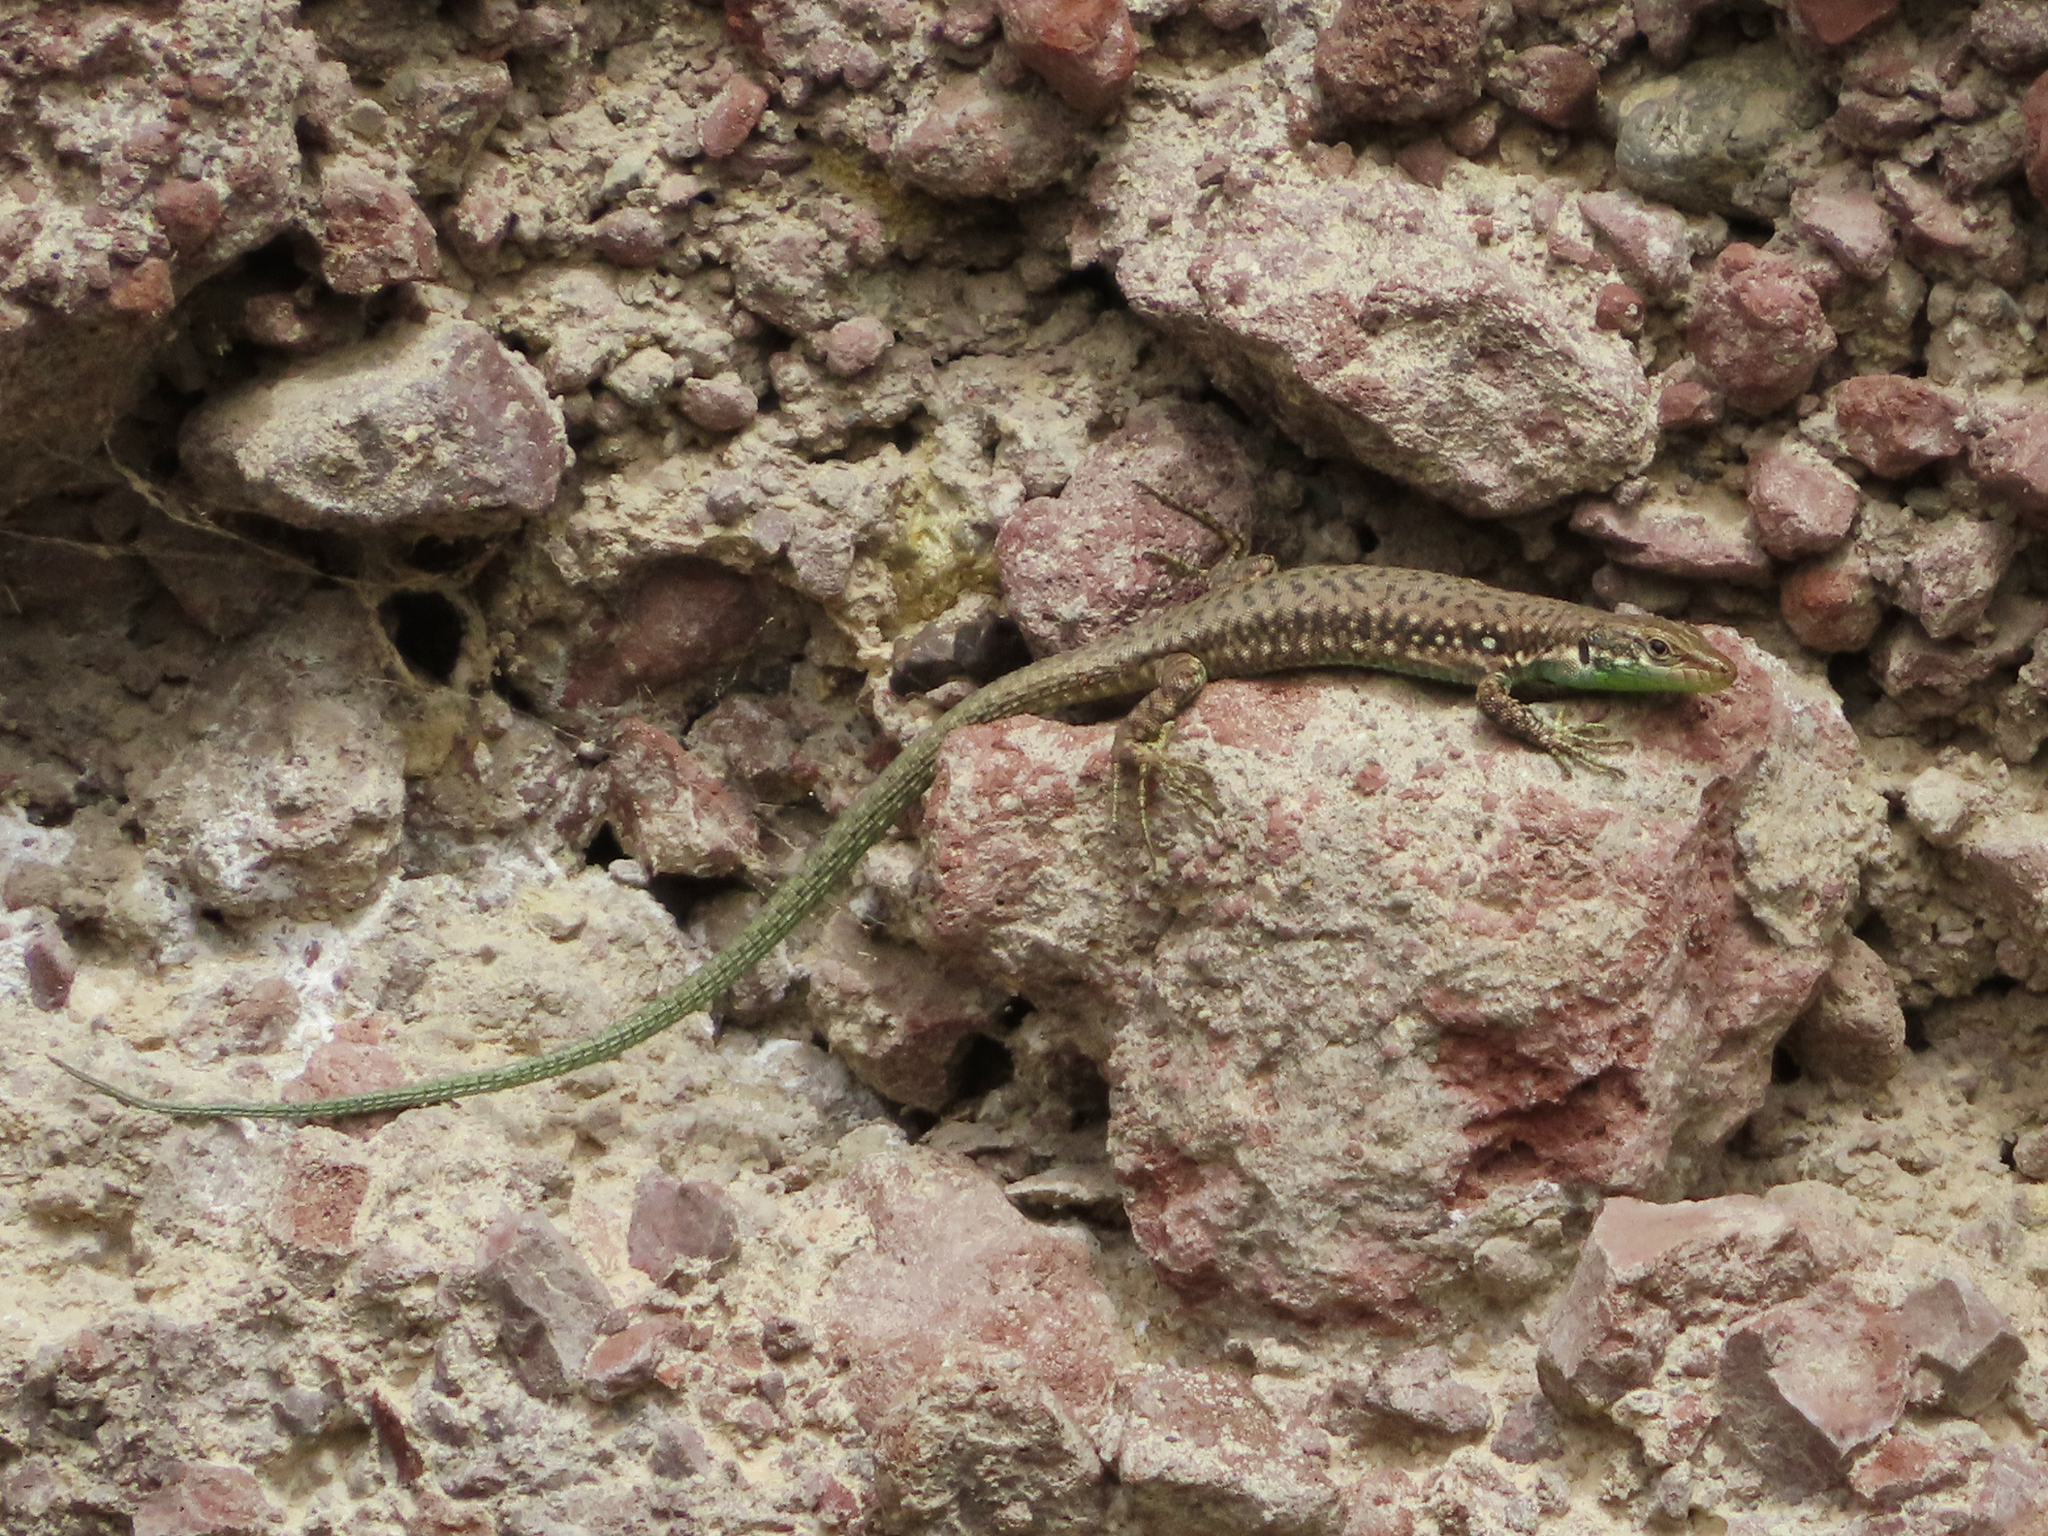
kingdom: Animalia
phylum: Chordata
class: Squamata
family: Lacertidae
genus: Darevskia
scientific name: Darevskia raddei
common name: Radde's lizard
